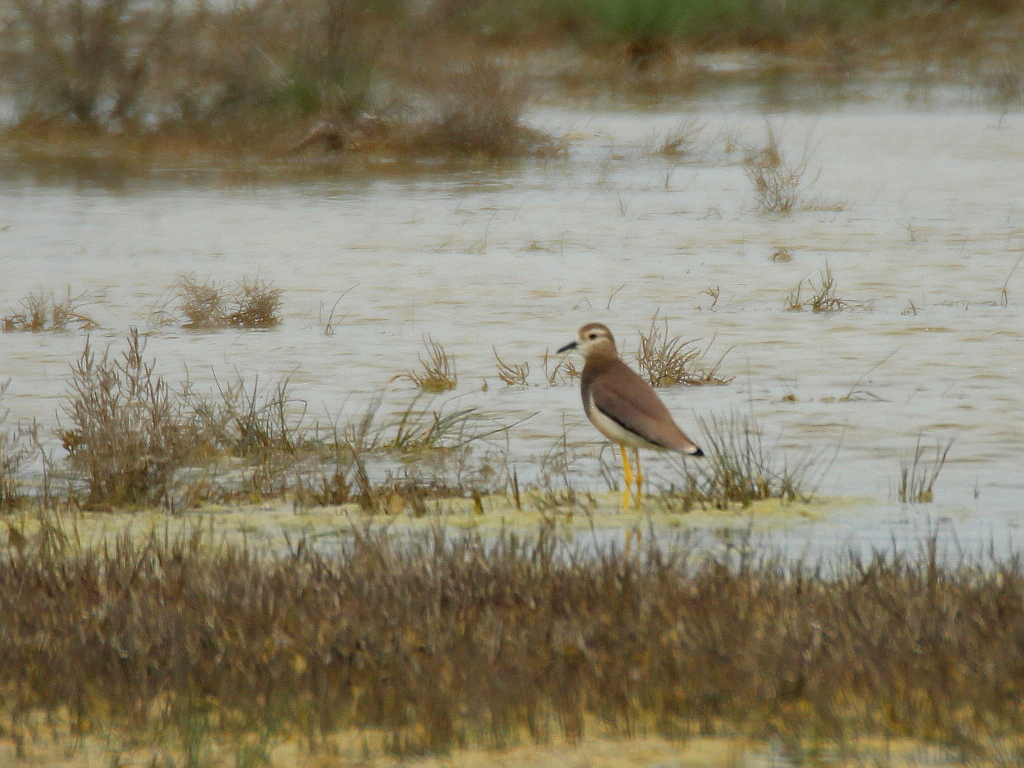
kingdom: Animalia
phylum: Chordata
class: Aves
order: Charadriiformes
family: Charadriidae
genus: Vanellus
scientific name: Vanellus leucurus
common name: White-tailed lapwing
